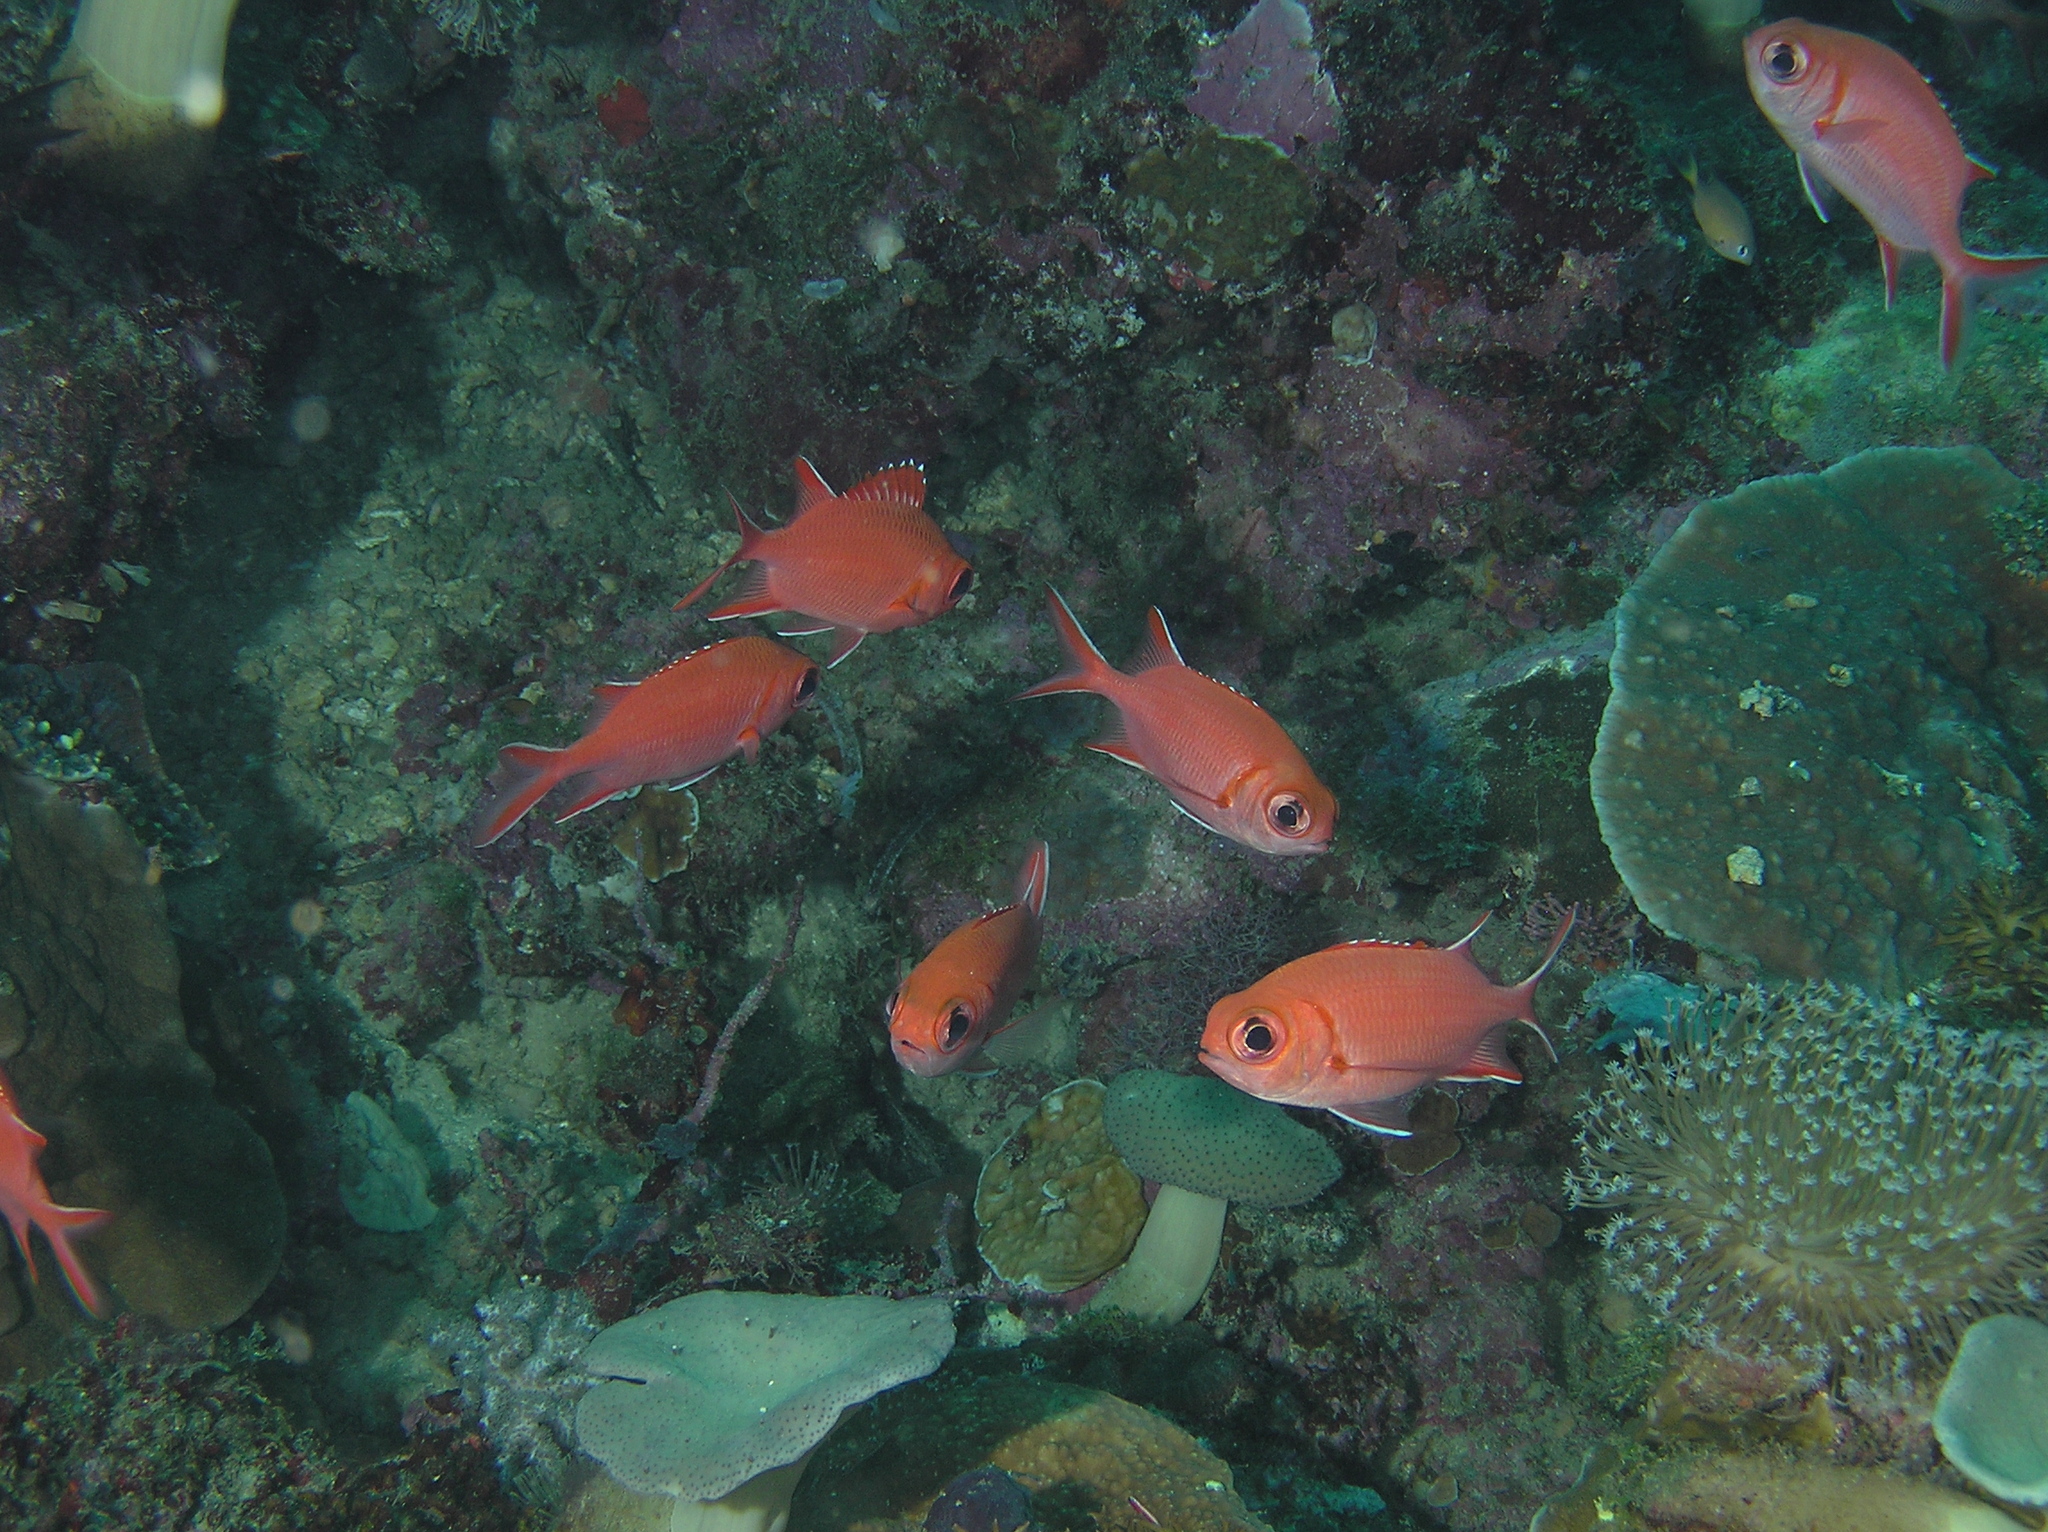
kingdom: Animalia
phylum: Chordata
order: Beryciformes
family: Holocentridae
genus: Myripristis
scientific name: Myripristis vittata
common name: Immaculate squirrelfish
